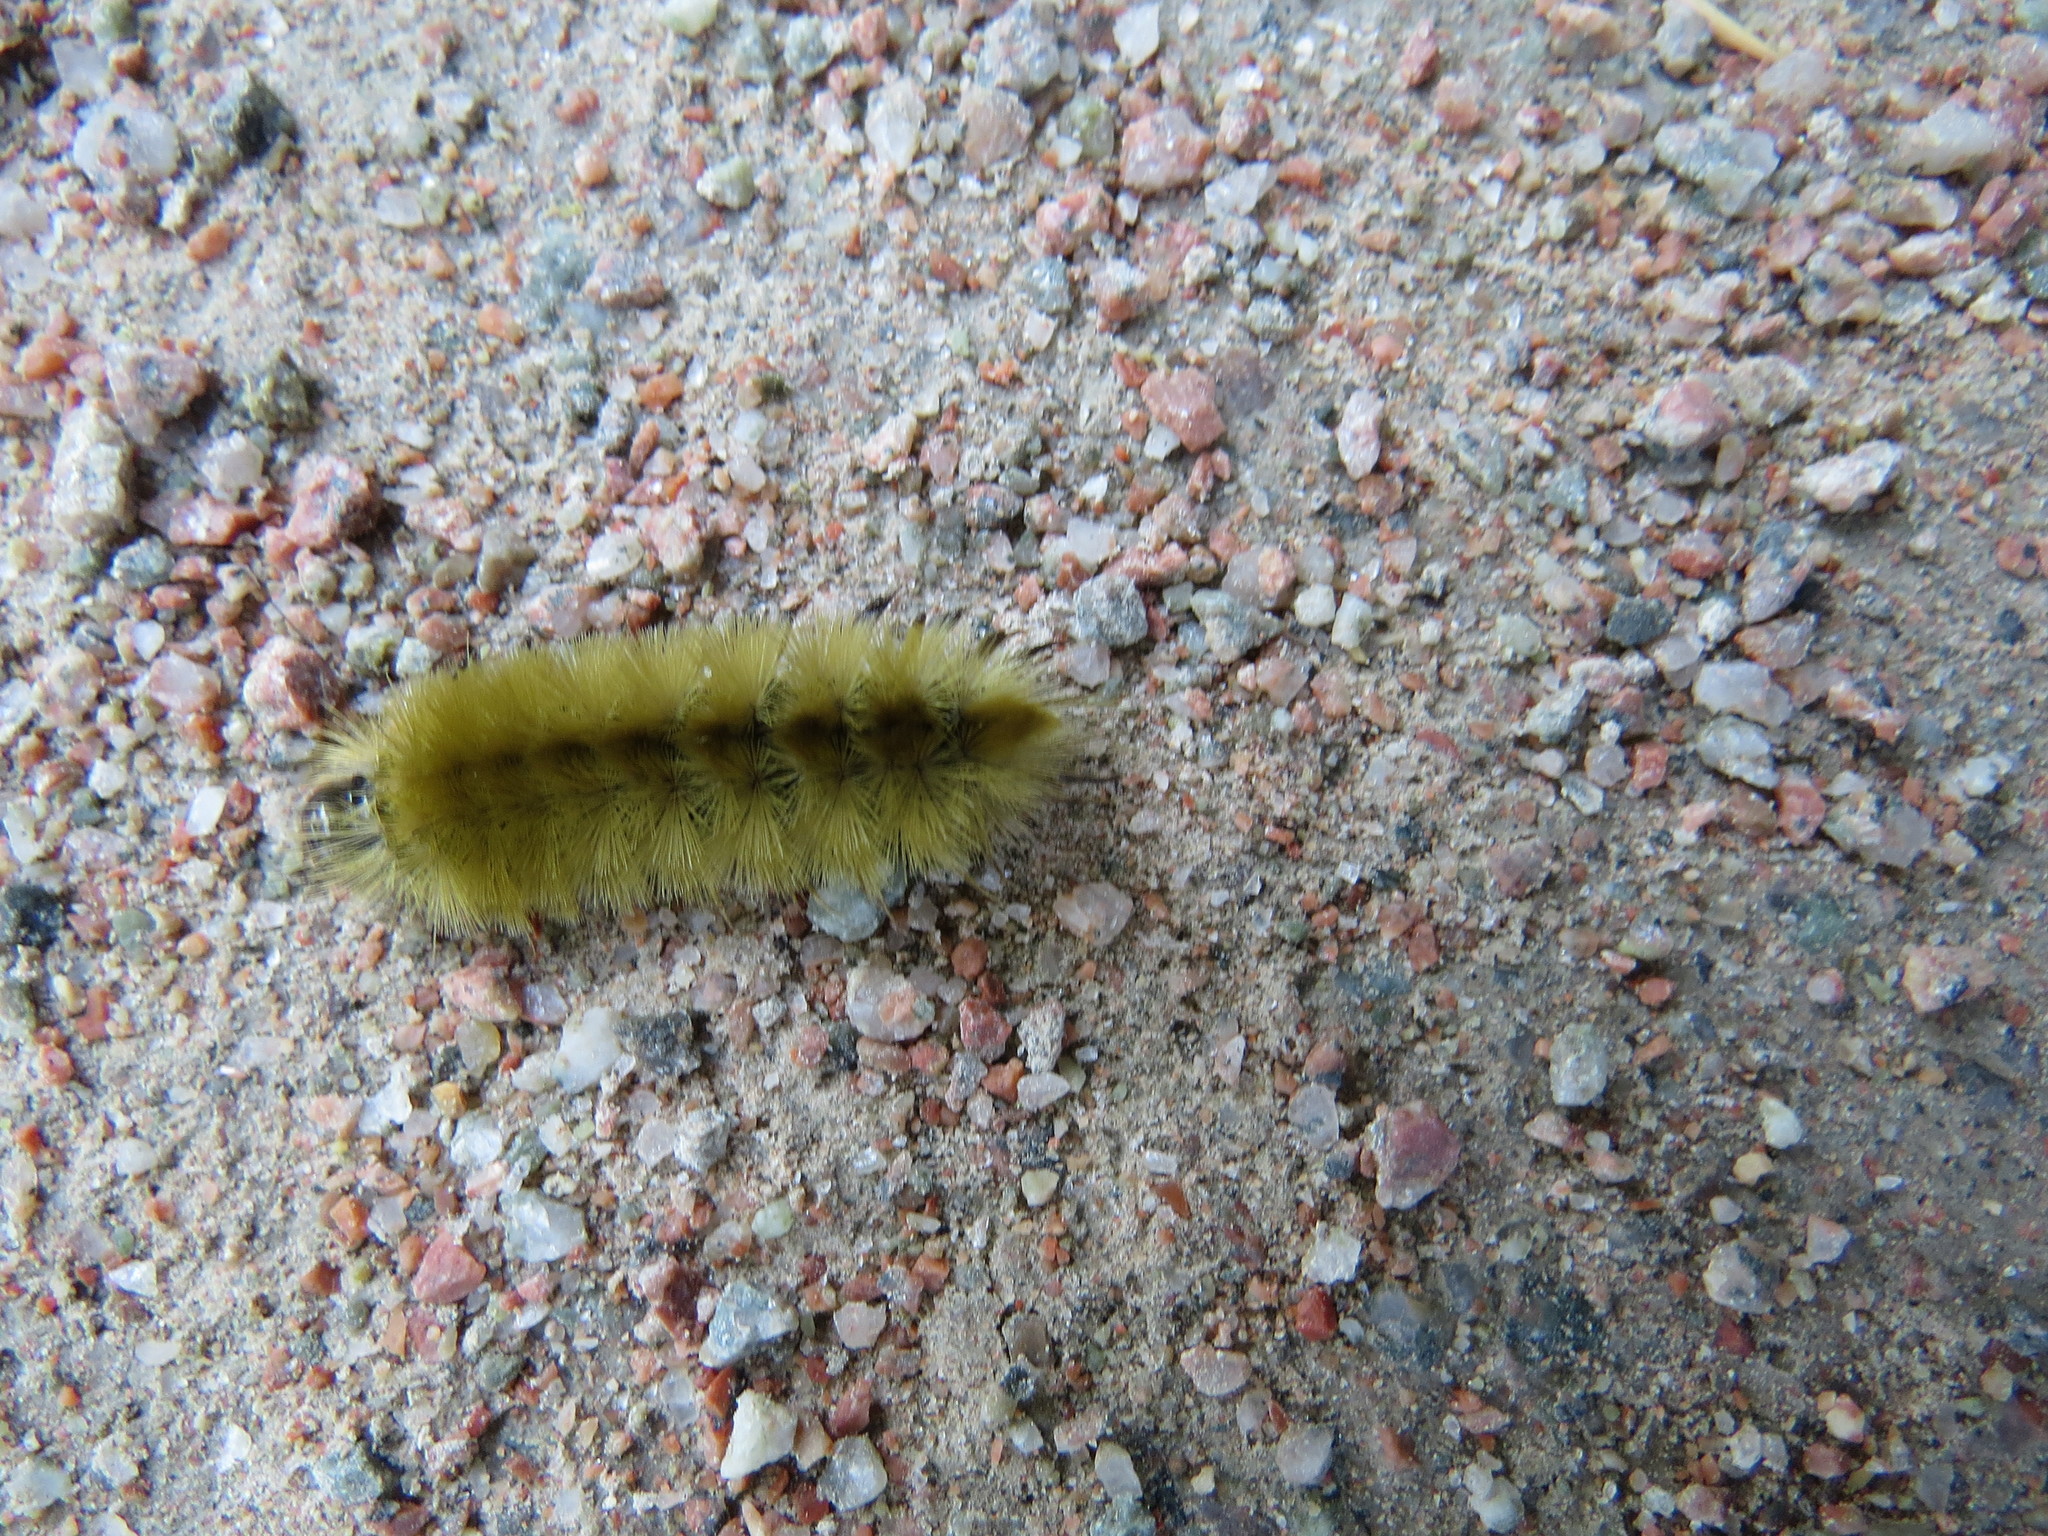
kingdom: Animalia
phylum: Arthropoda
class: Insecta
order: Lepidoptera
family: Erebidae
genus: Halysidota
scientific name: Halysidota tessellaris
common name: Banded tussock moth
